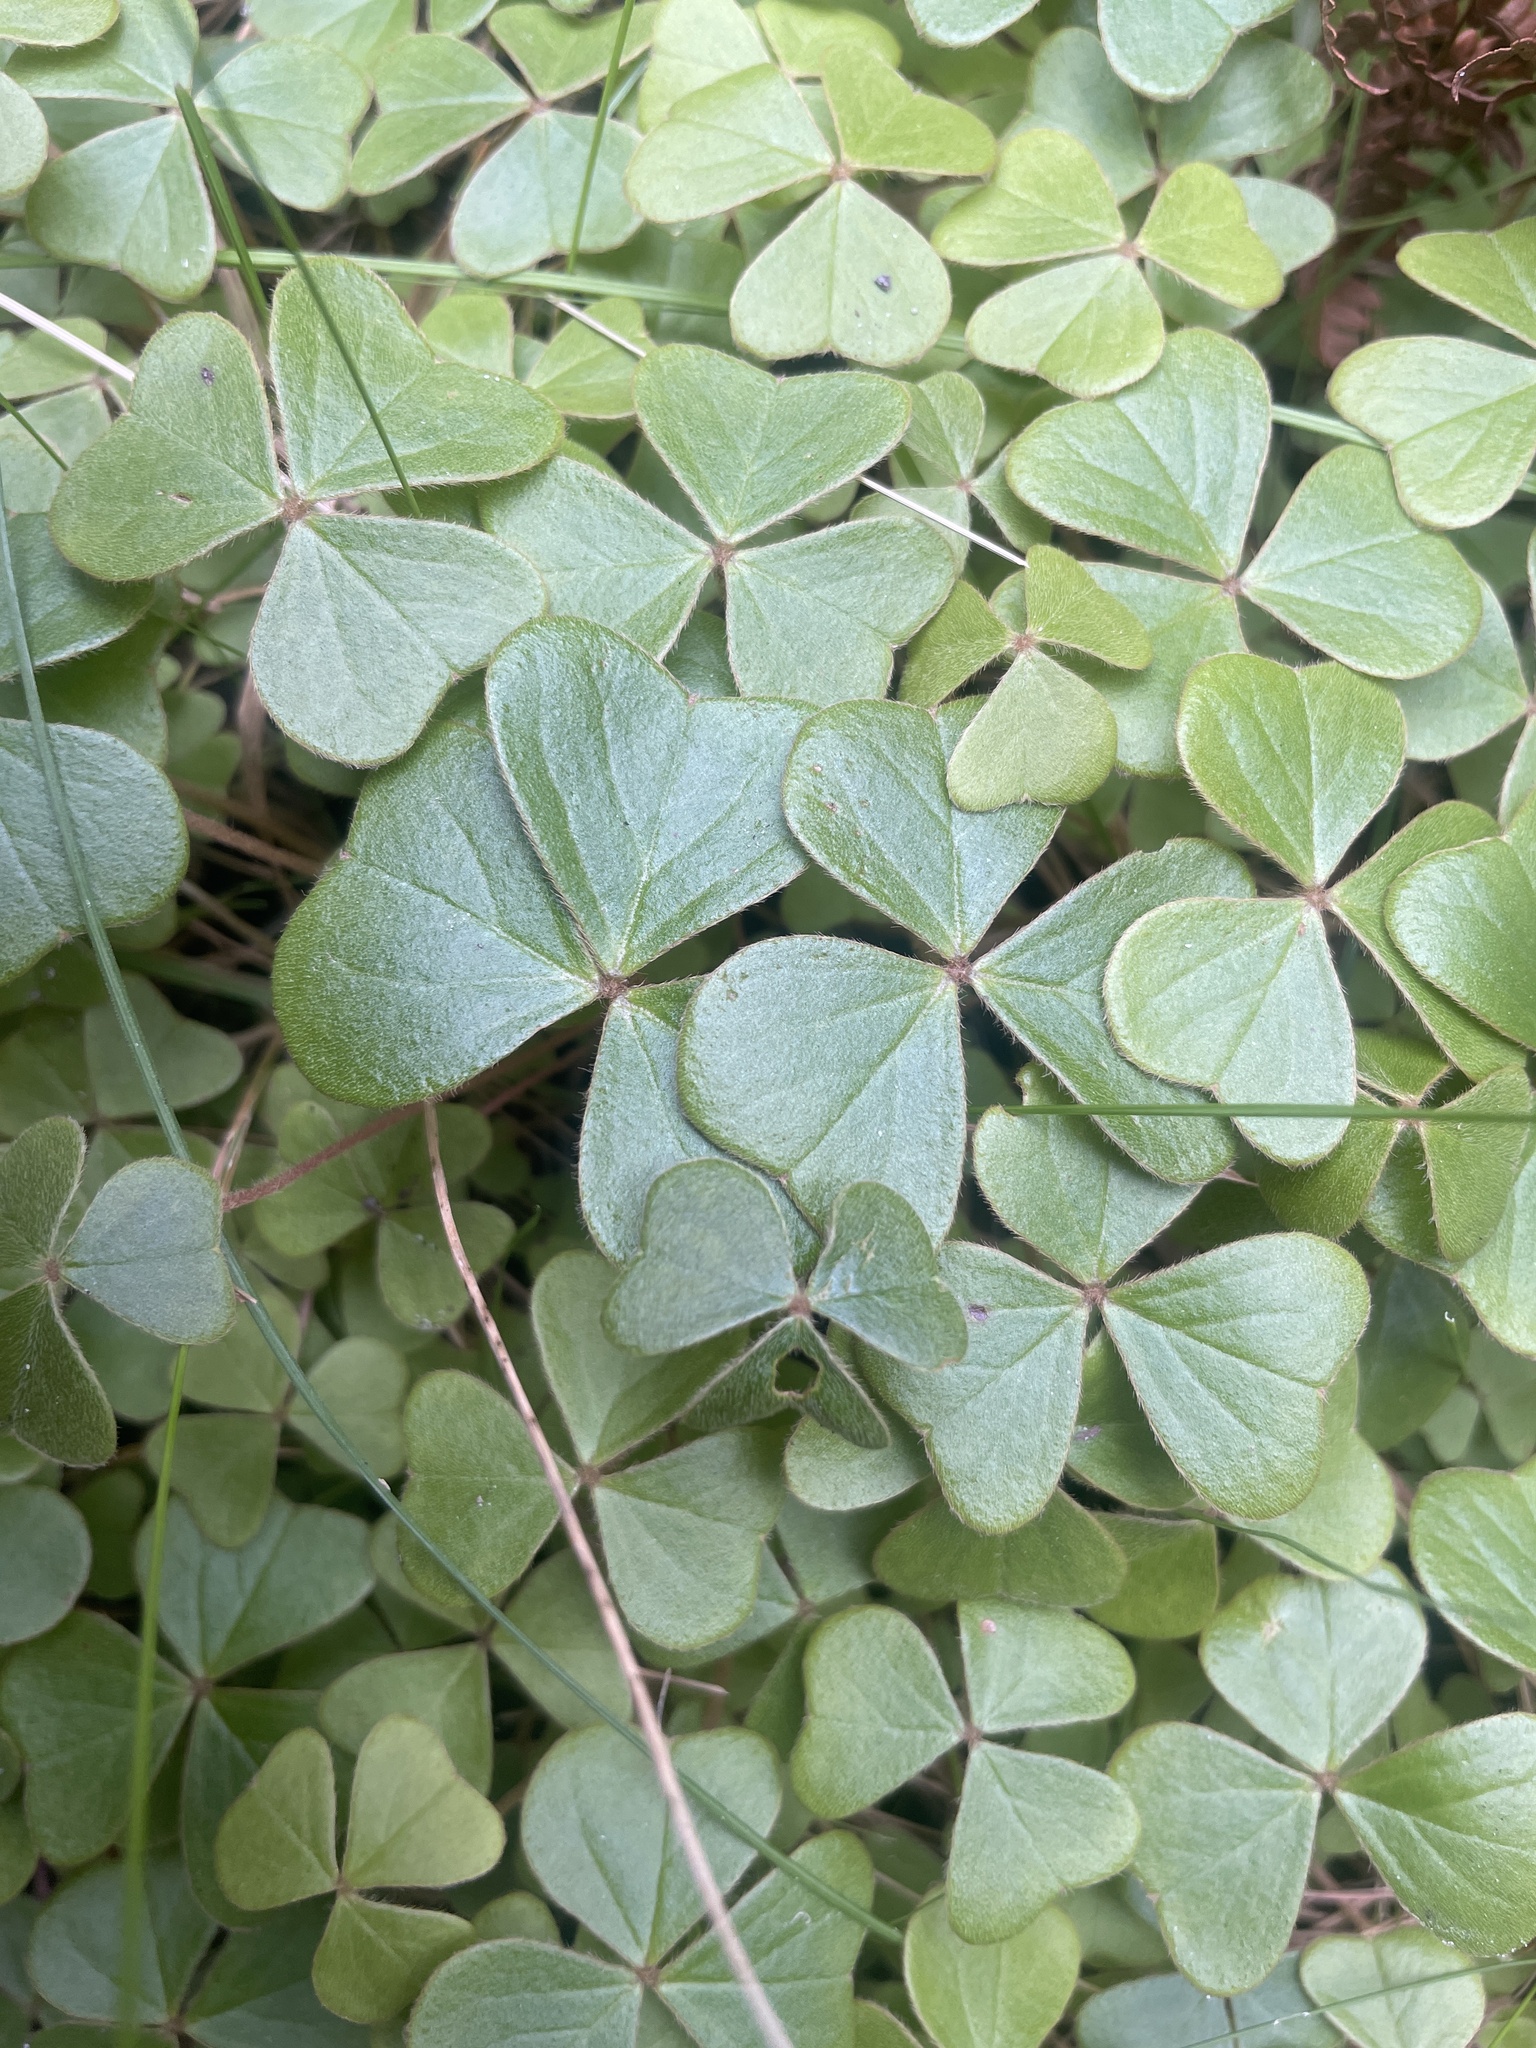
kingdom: Plantae
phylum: Tracheophyta
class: Magnoliopsida
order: Oxalidales
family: Oxalidaceae
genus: Oxalis
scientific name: Oxalis truncatula
